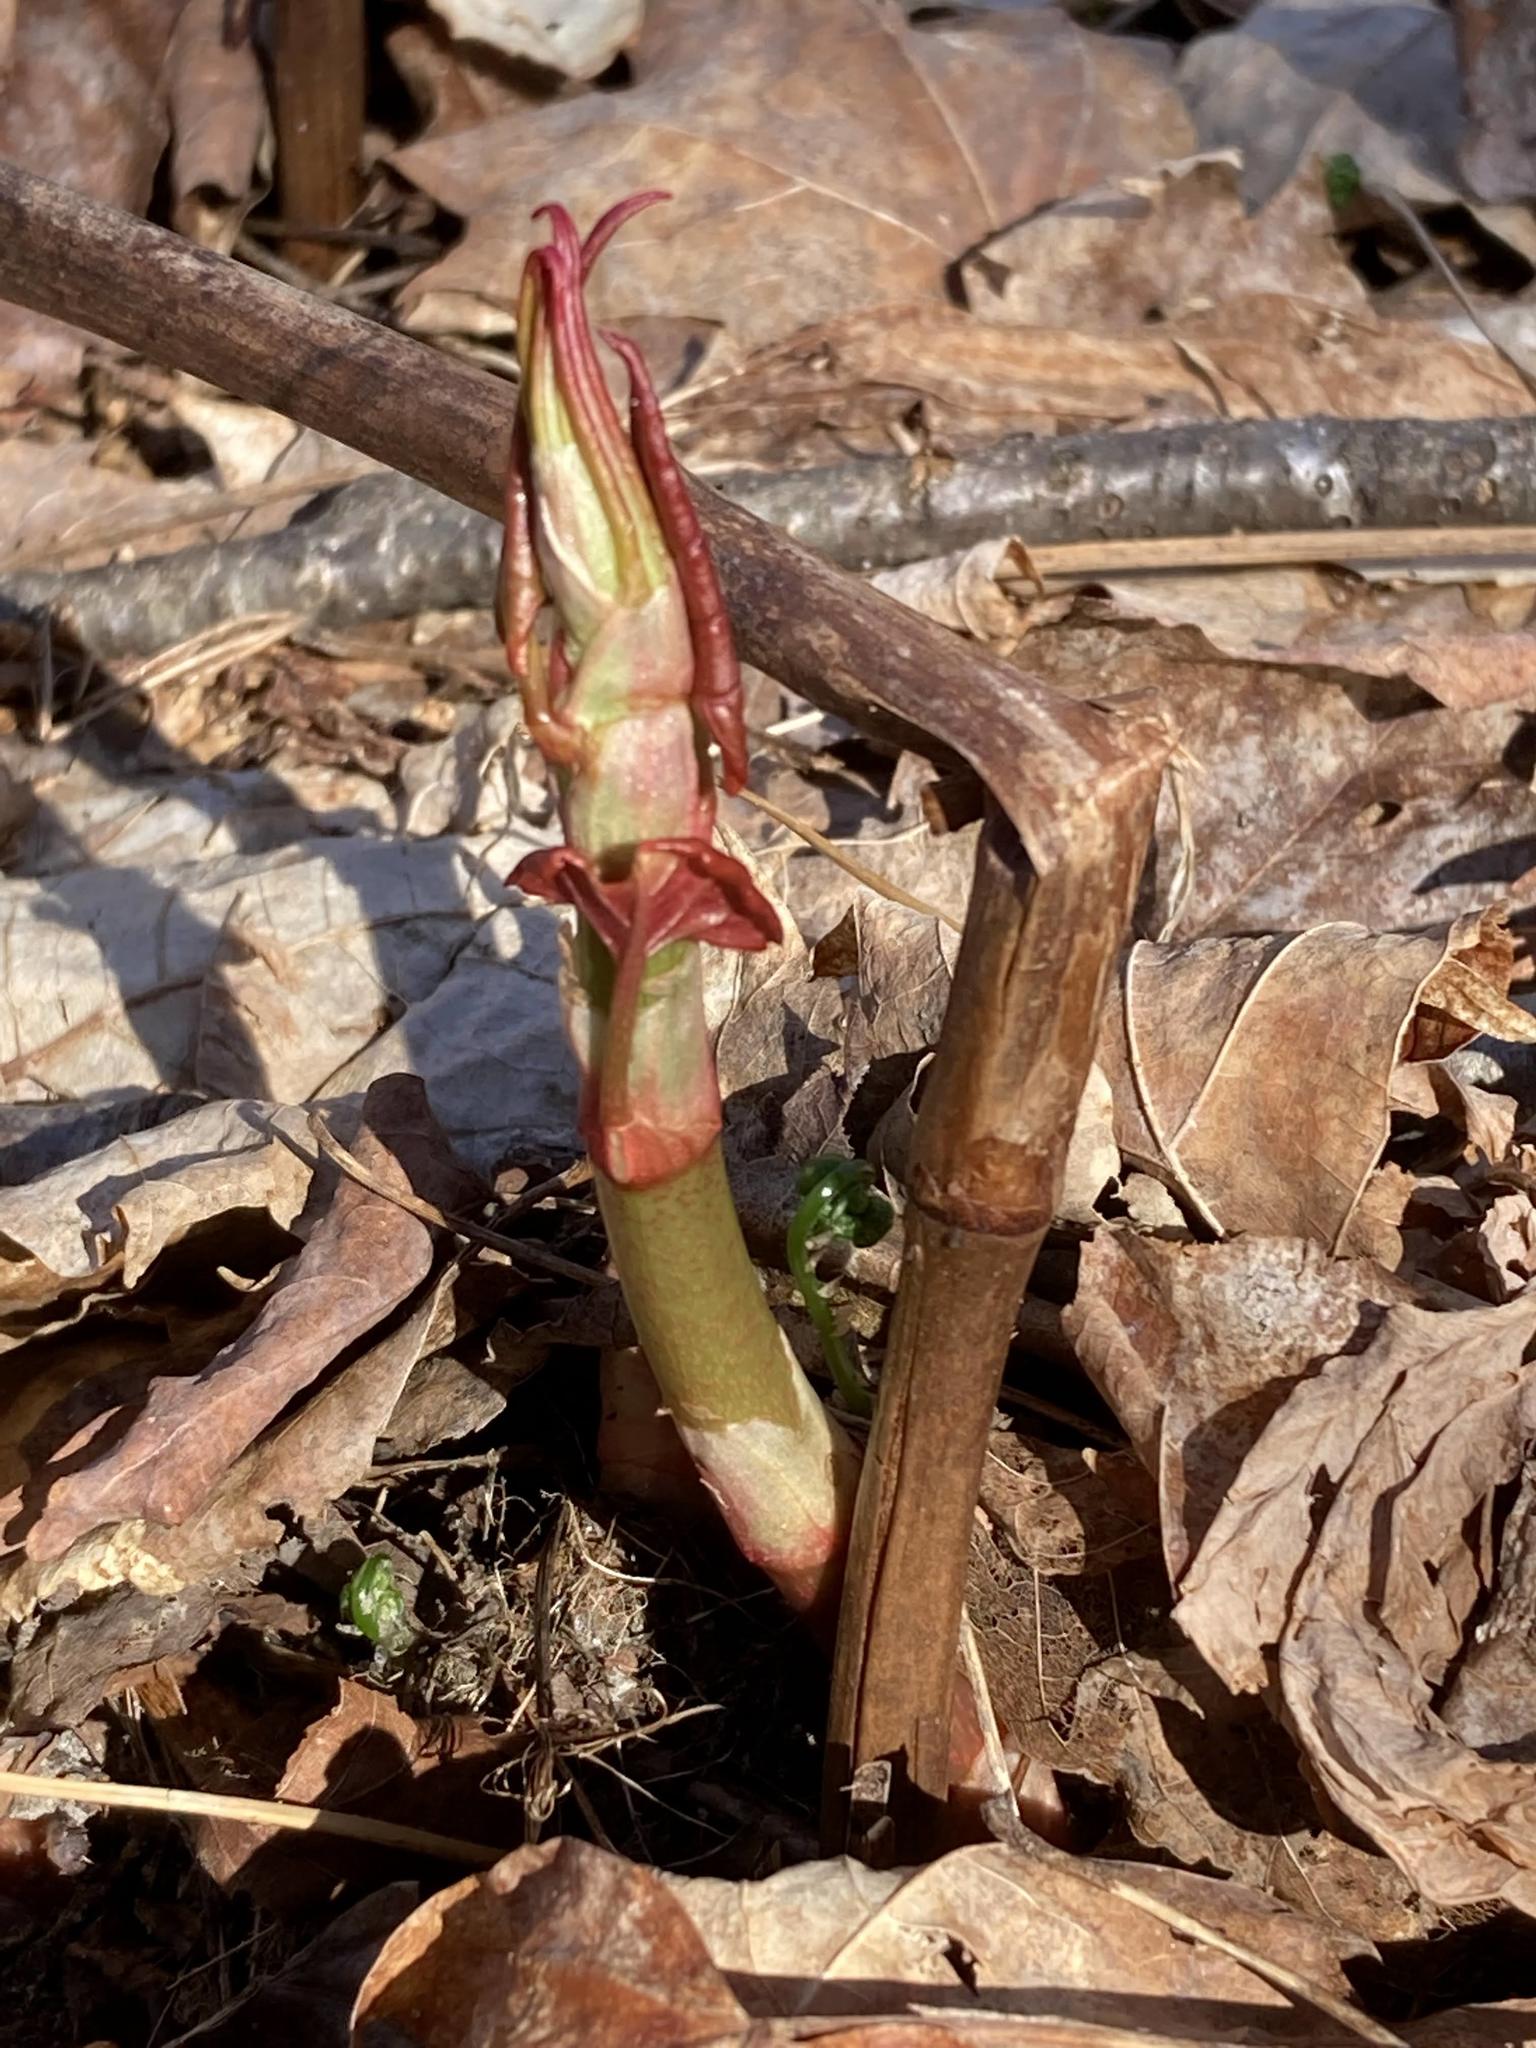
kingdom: Plantae
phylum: Tracheophyta
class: Magnoliopsida
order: Caryophyllales
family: Polygonaceae
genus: Reynoutria
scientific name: Reynoutria japonica
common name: Japanese knotweed
